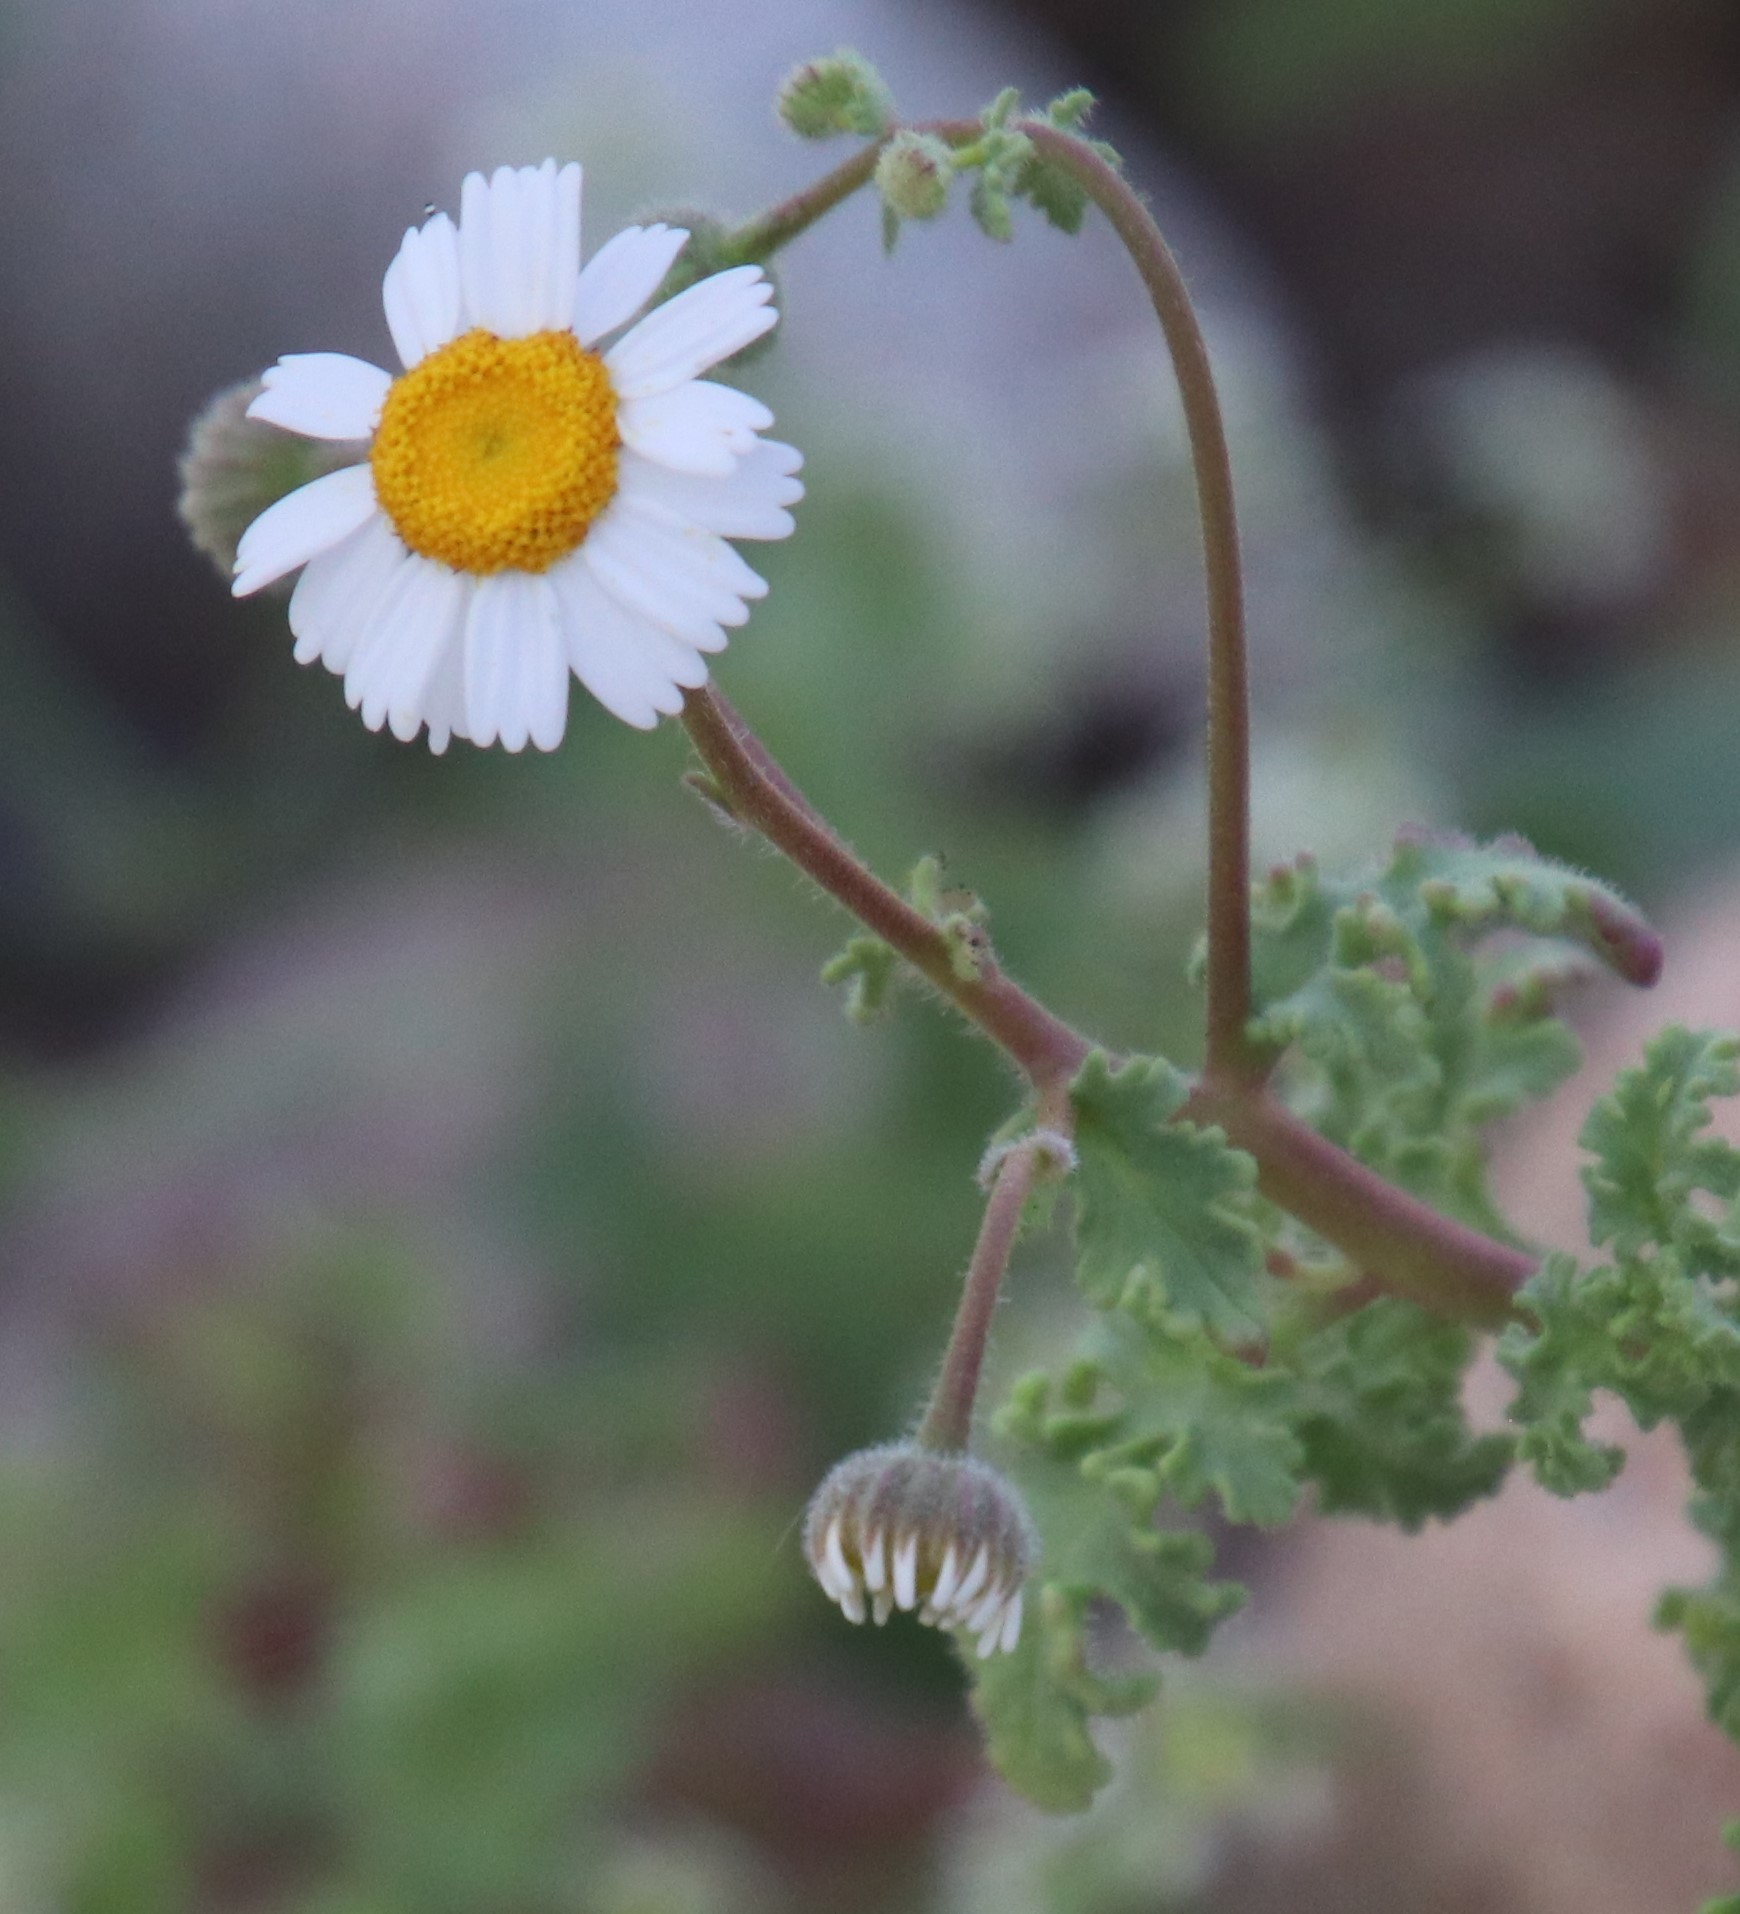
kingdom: Plantae
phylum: Tracheophyta
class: Magnoliopsida
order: Asterales
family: Asteraceae
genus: Perityle
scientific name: Perityle crassifolia
